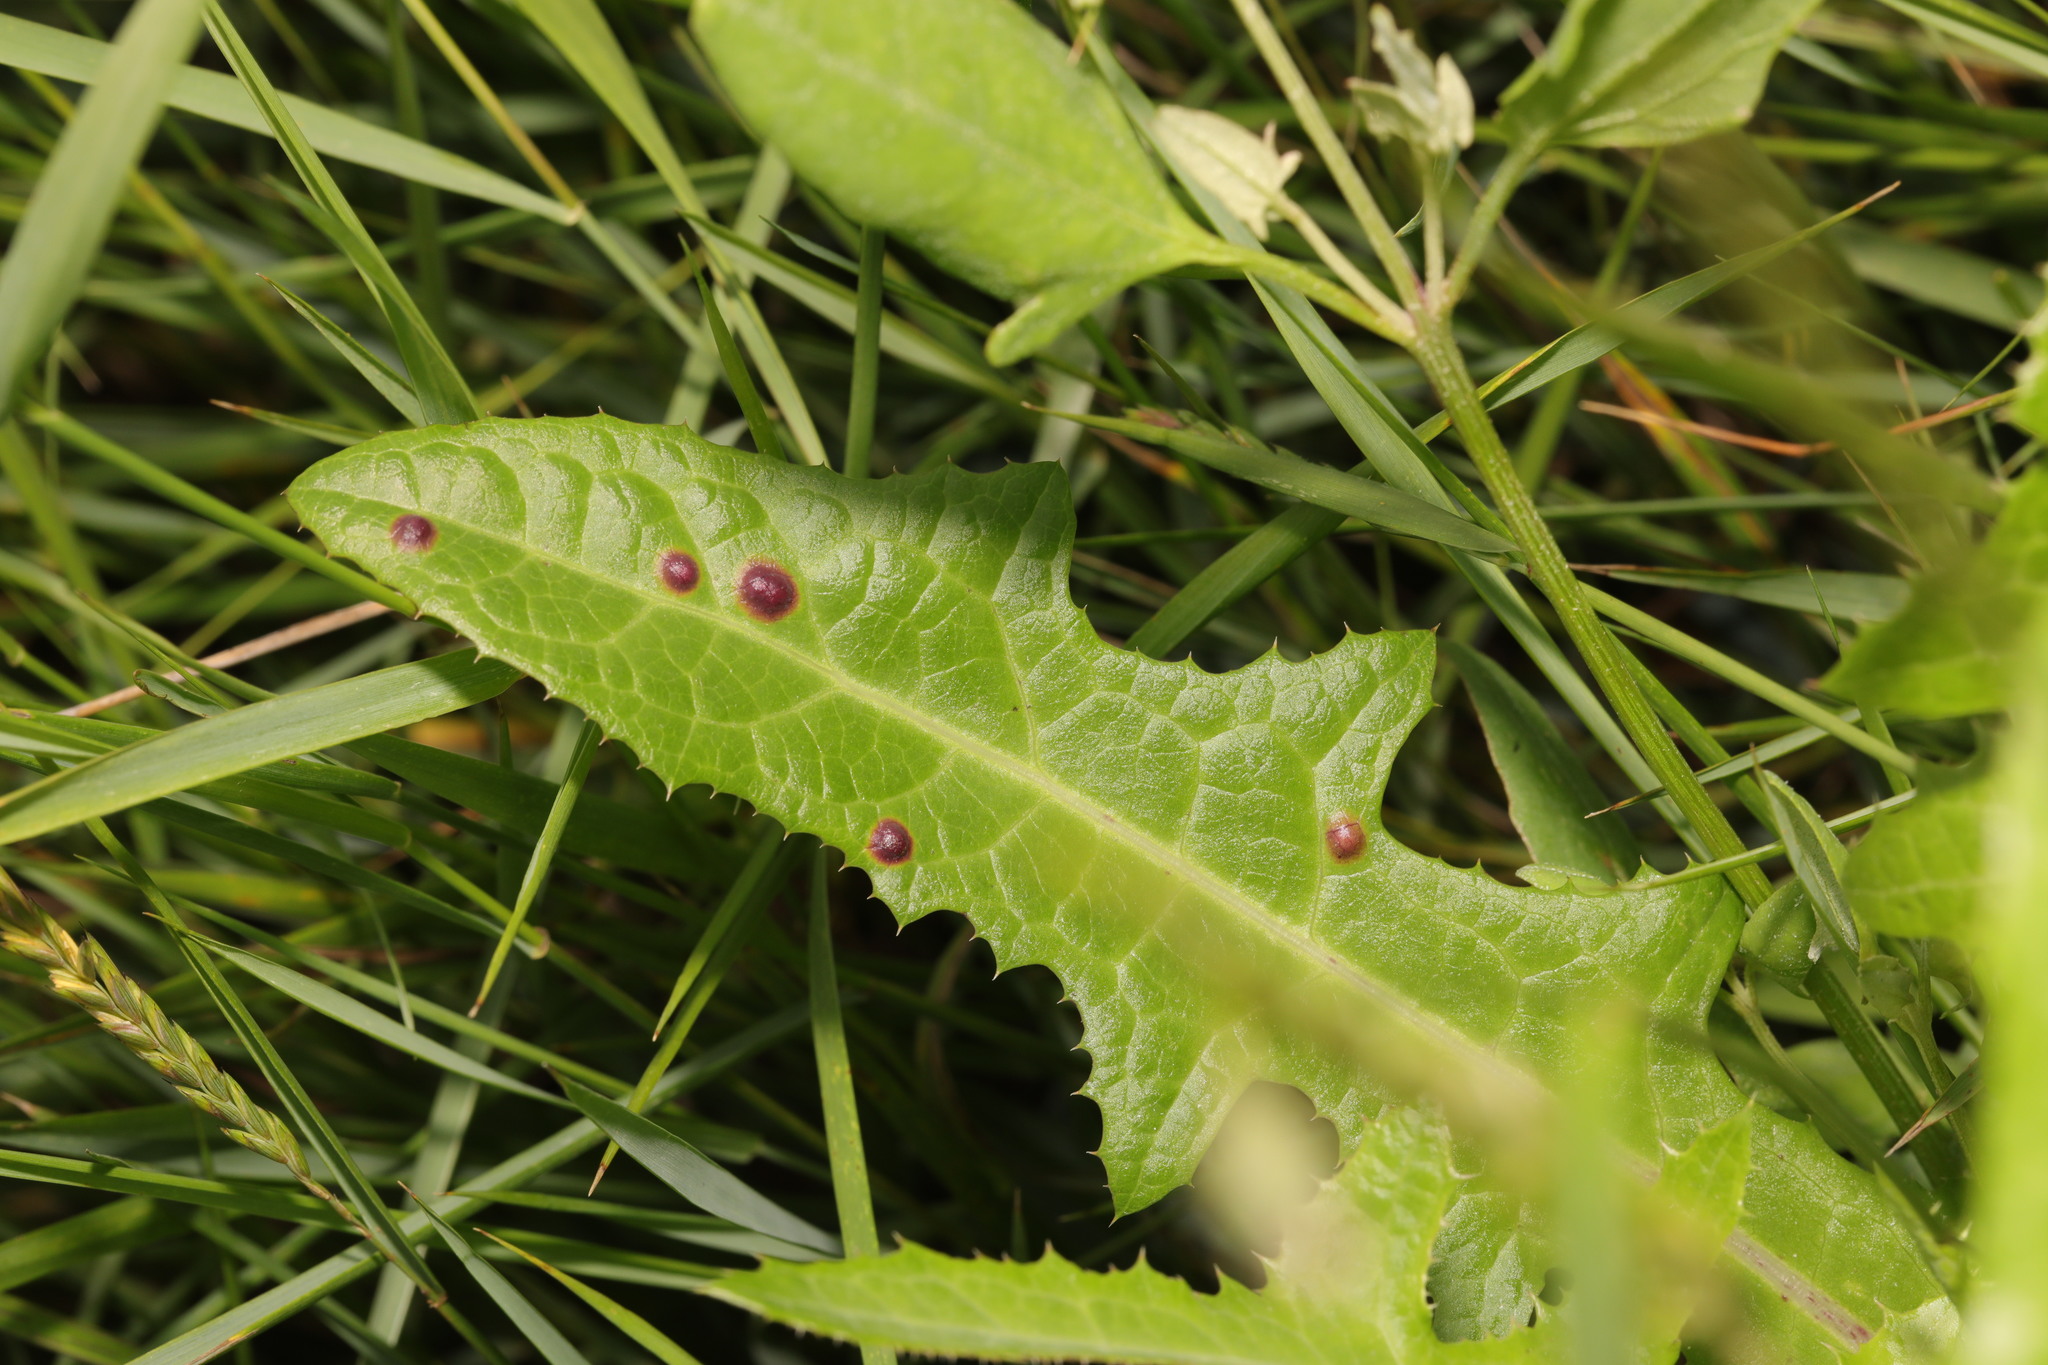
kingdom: Animalia
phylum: Arthropoda
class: Insecta
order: Diptera
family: Cecidomyiidae
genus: Cystiphora
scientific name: Cystiphora sonchi
